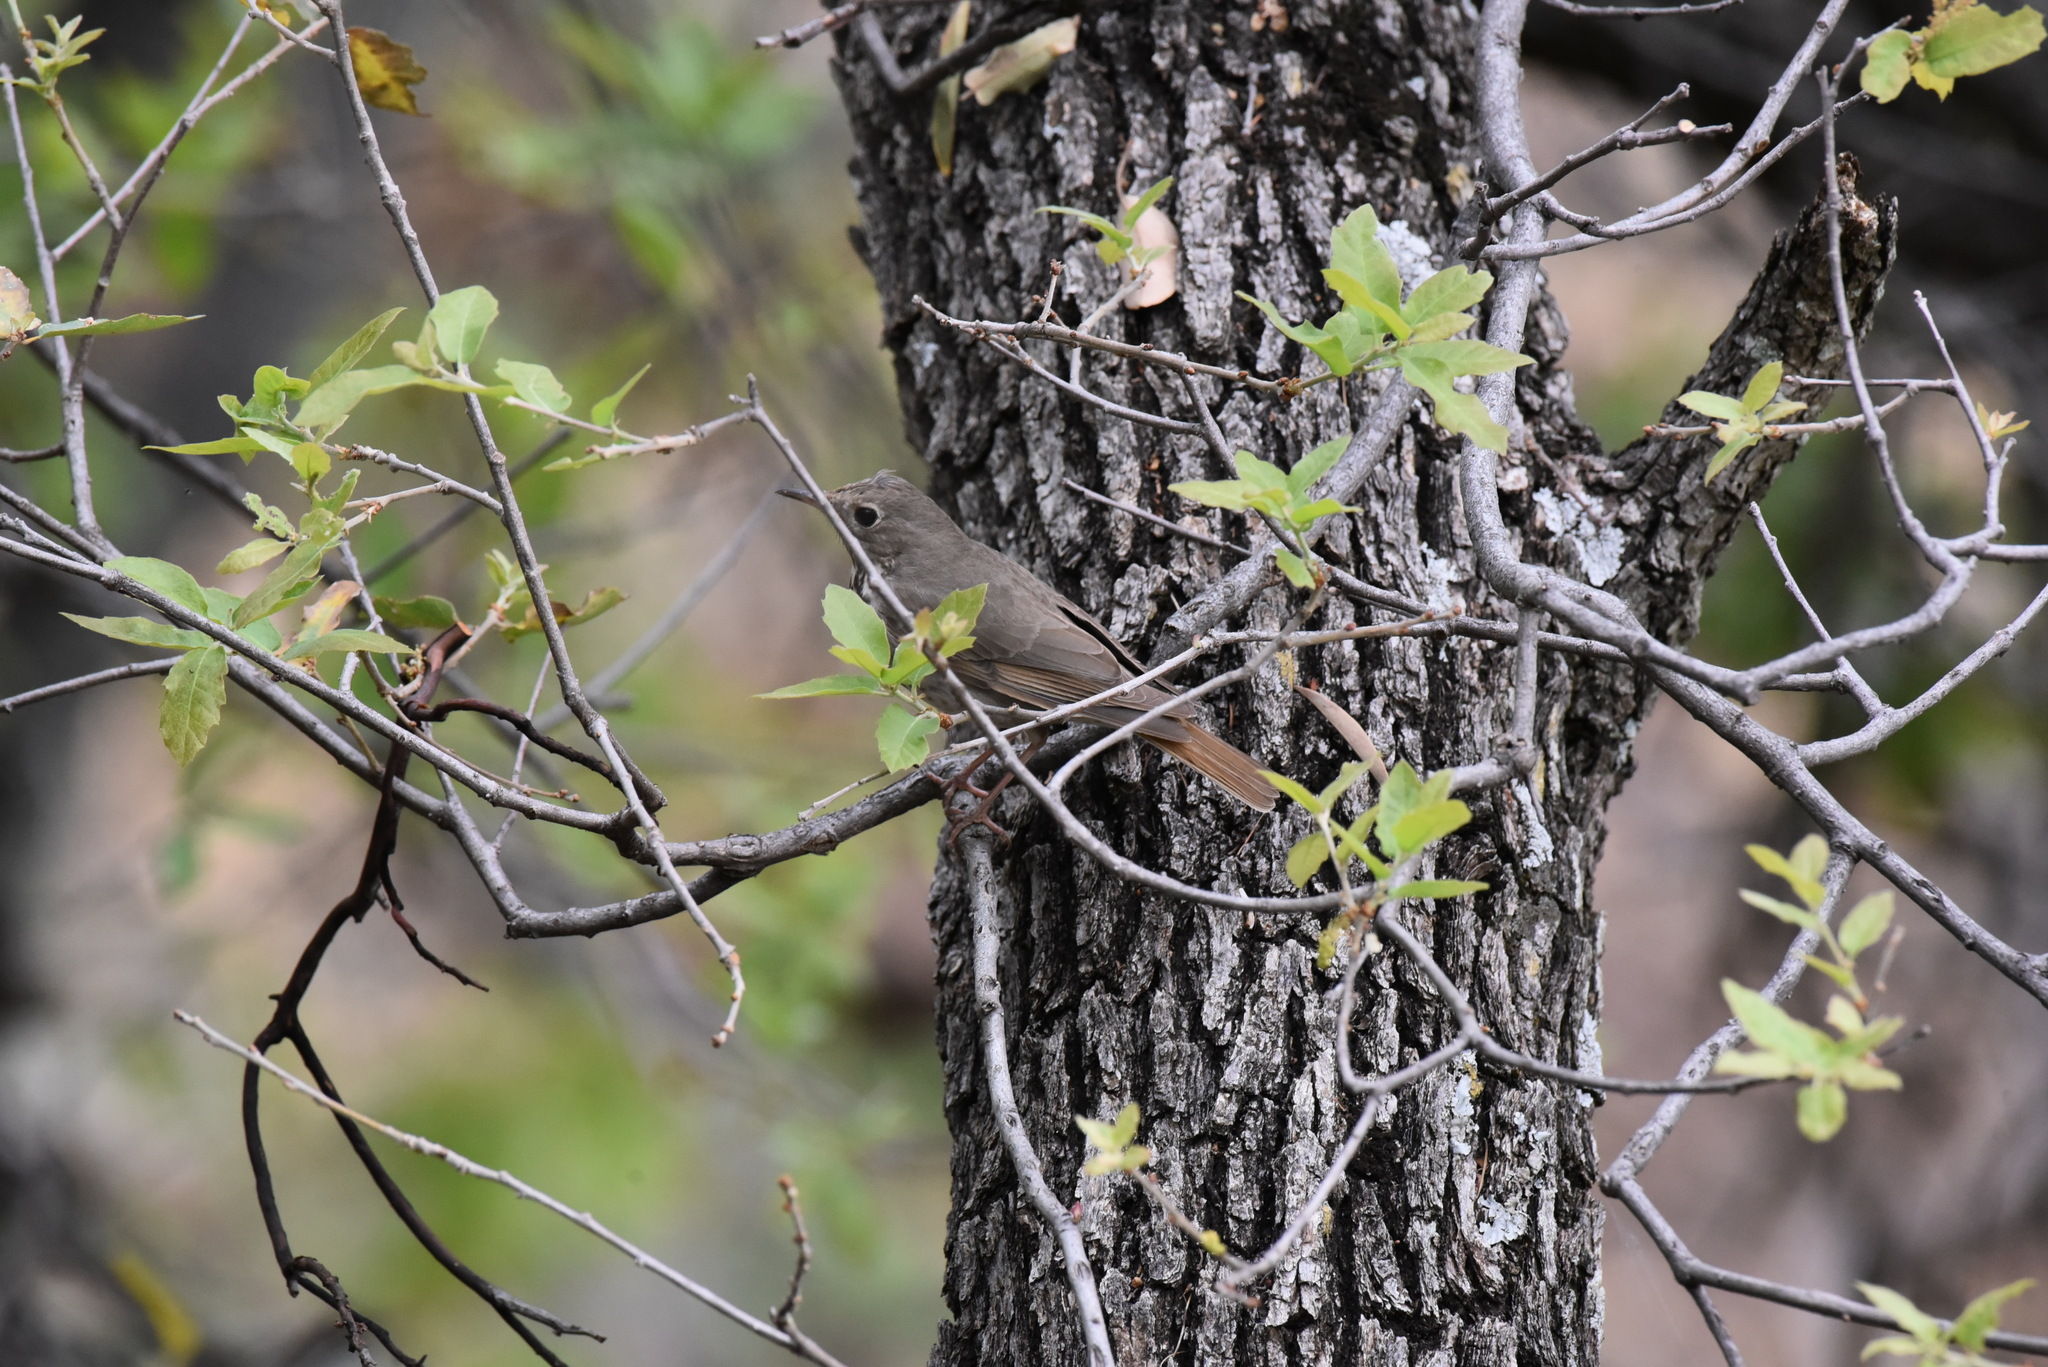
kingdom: Animalia
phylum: Chordata
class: Aves
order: Passeriformes
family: Turdidae
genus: Catharus
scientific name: Catharus guttatus
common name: Hermit thrush
